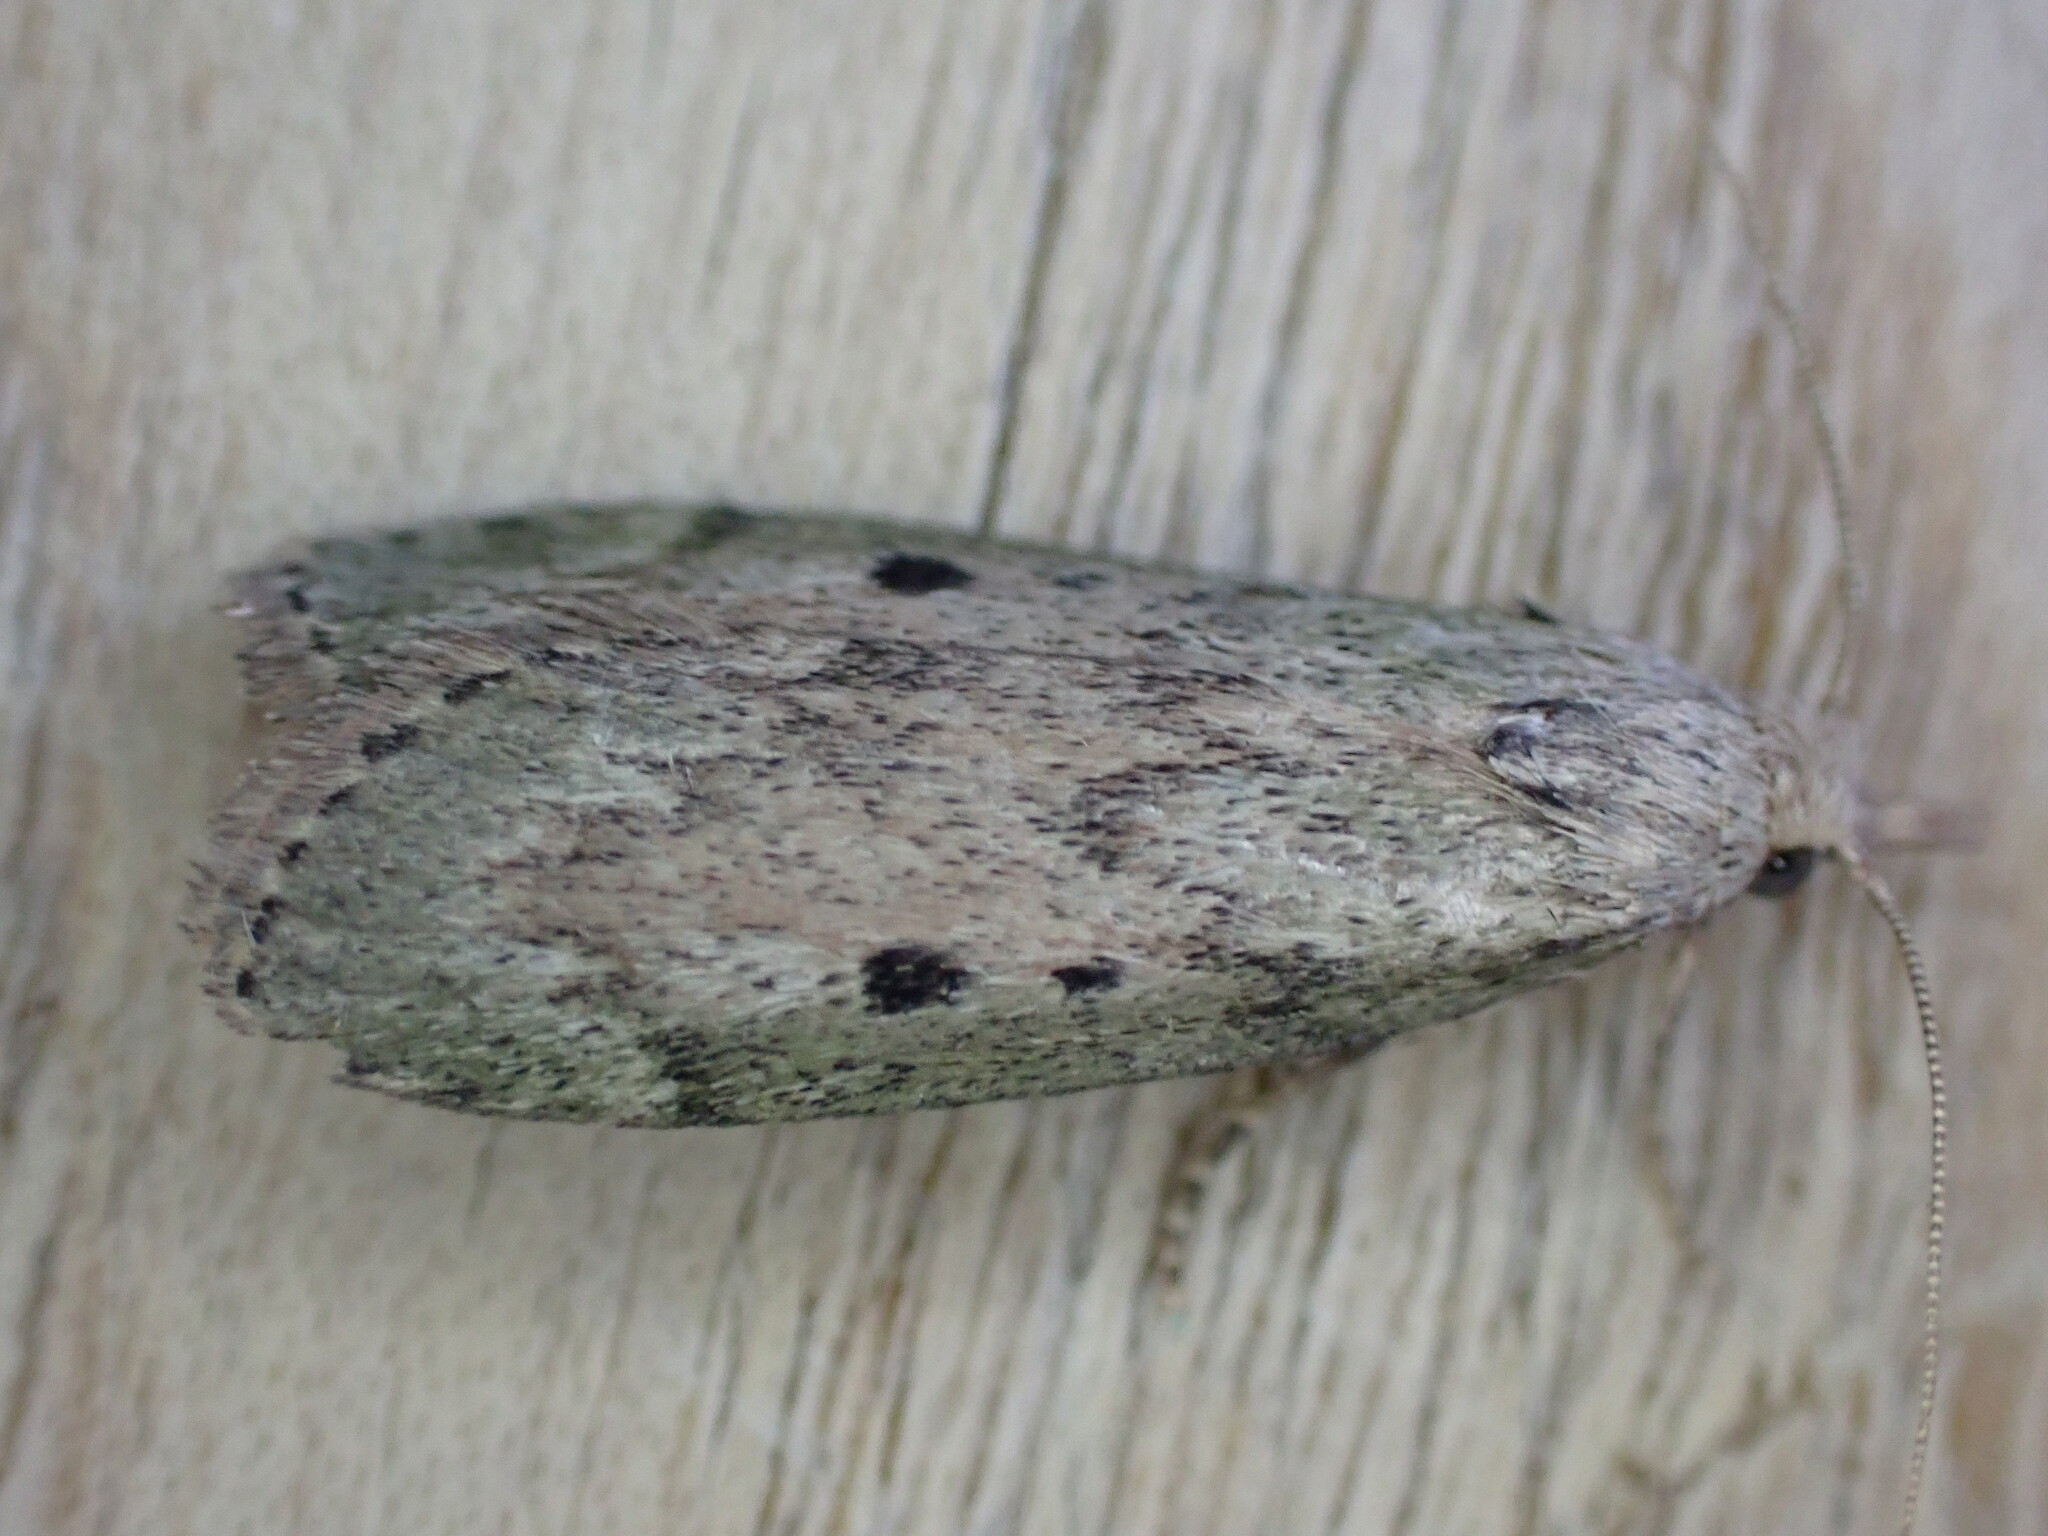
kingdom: Animalia
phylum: Arthropoda
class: Insecta
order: Lepidoptera
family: Pyralidae
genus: Aphomia
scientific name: Aphomia sociella
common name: Bee moth
